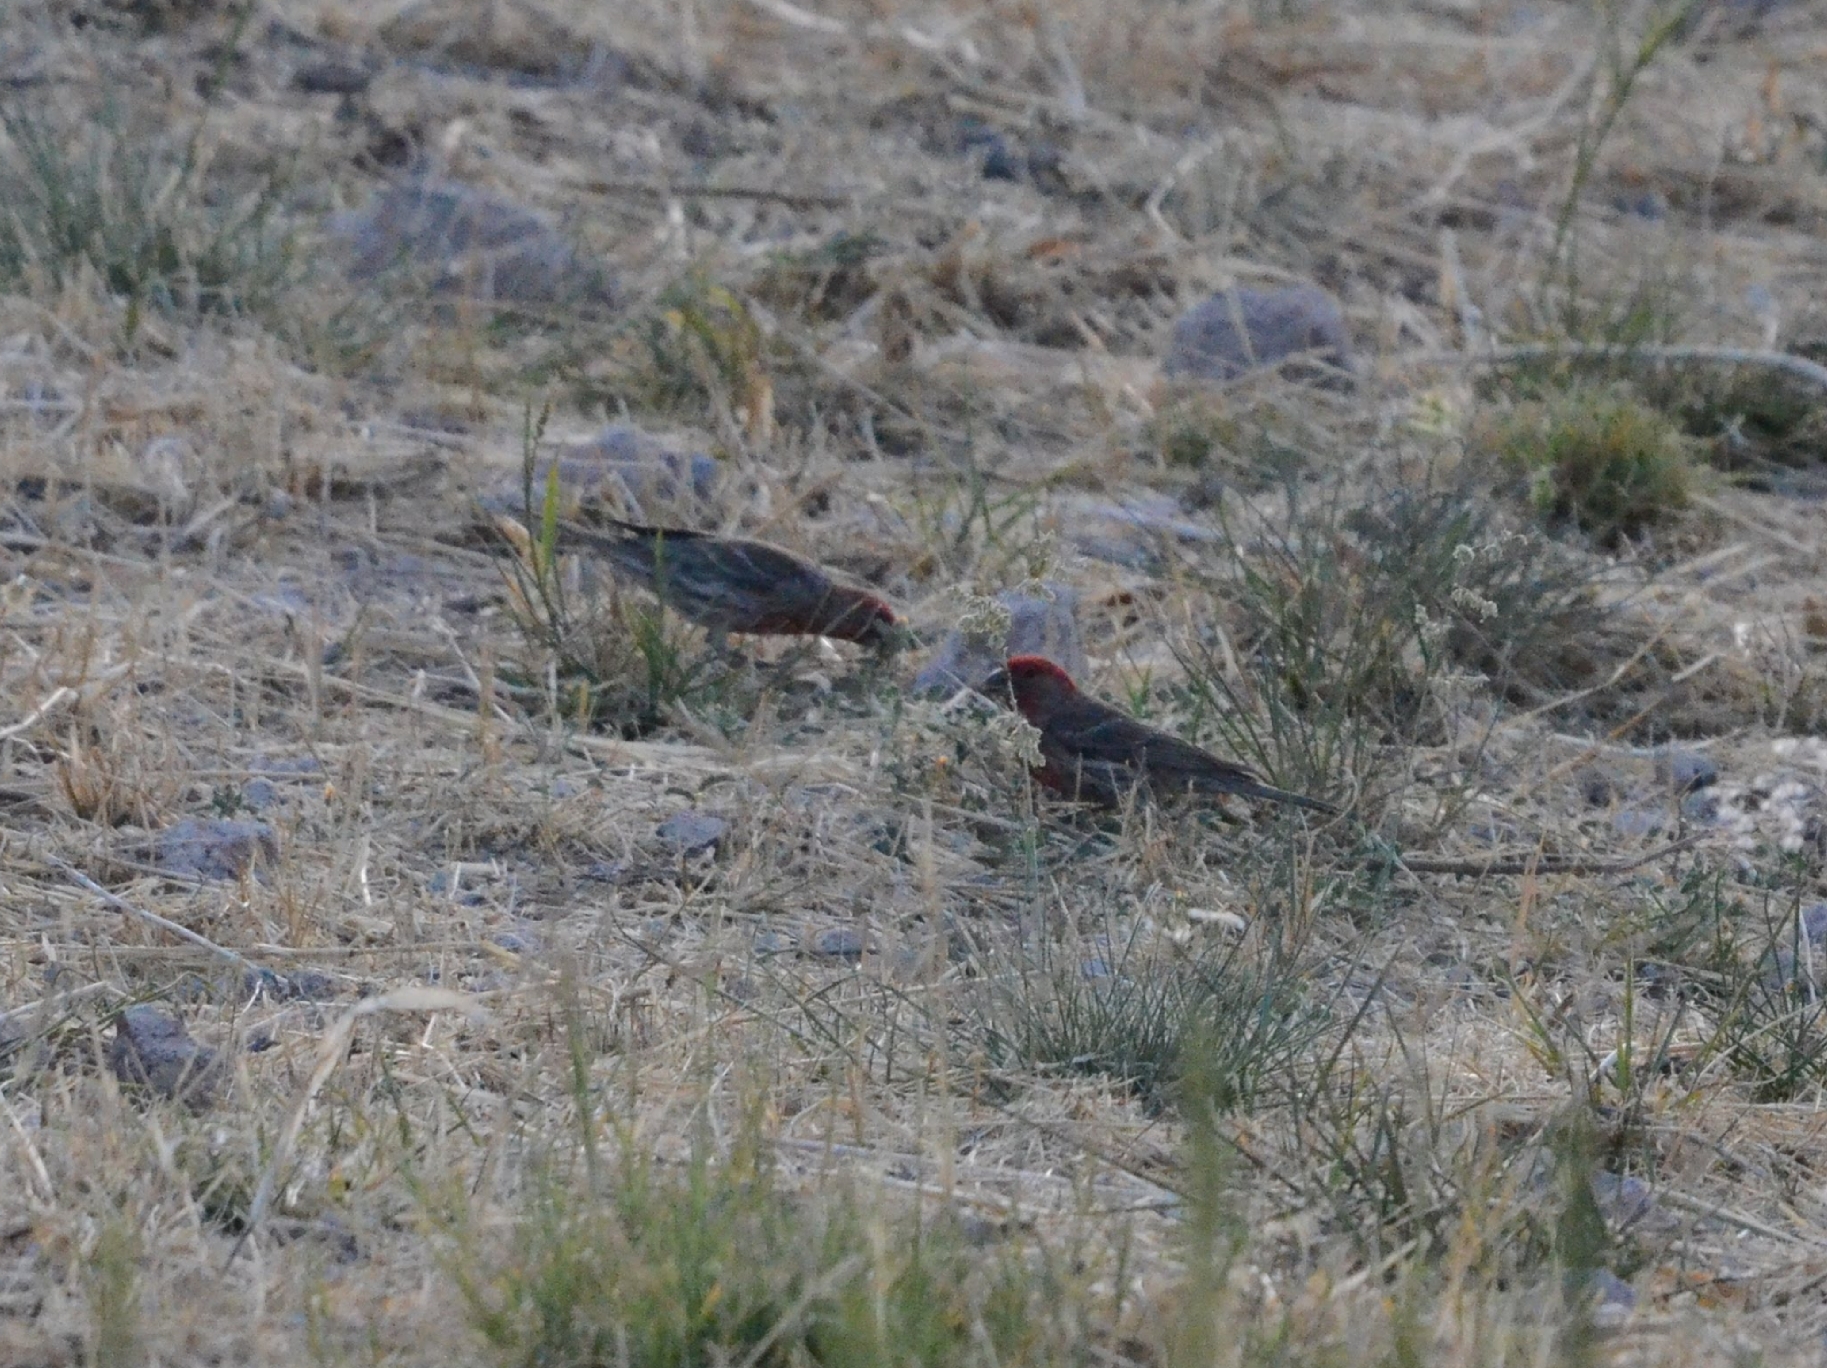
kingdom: Animalia
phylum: Chordata
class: Aves
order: Passeriformes
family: Fringillidae
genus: Haemorhous
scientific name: Haemorhous mexicanus
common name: House finch
